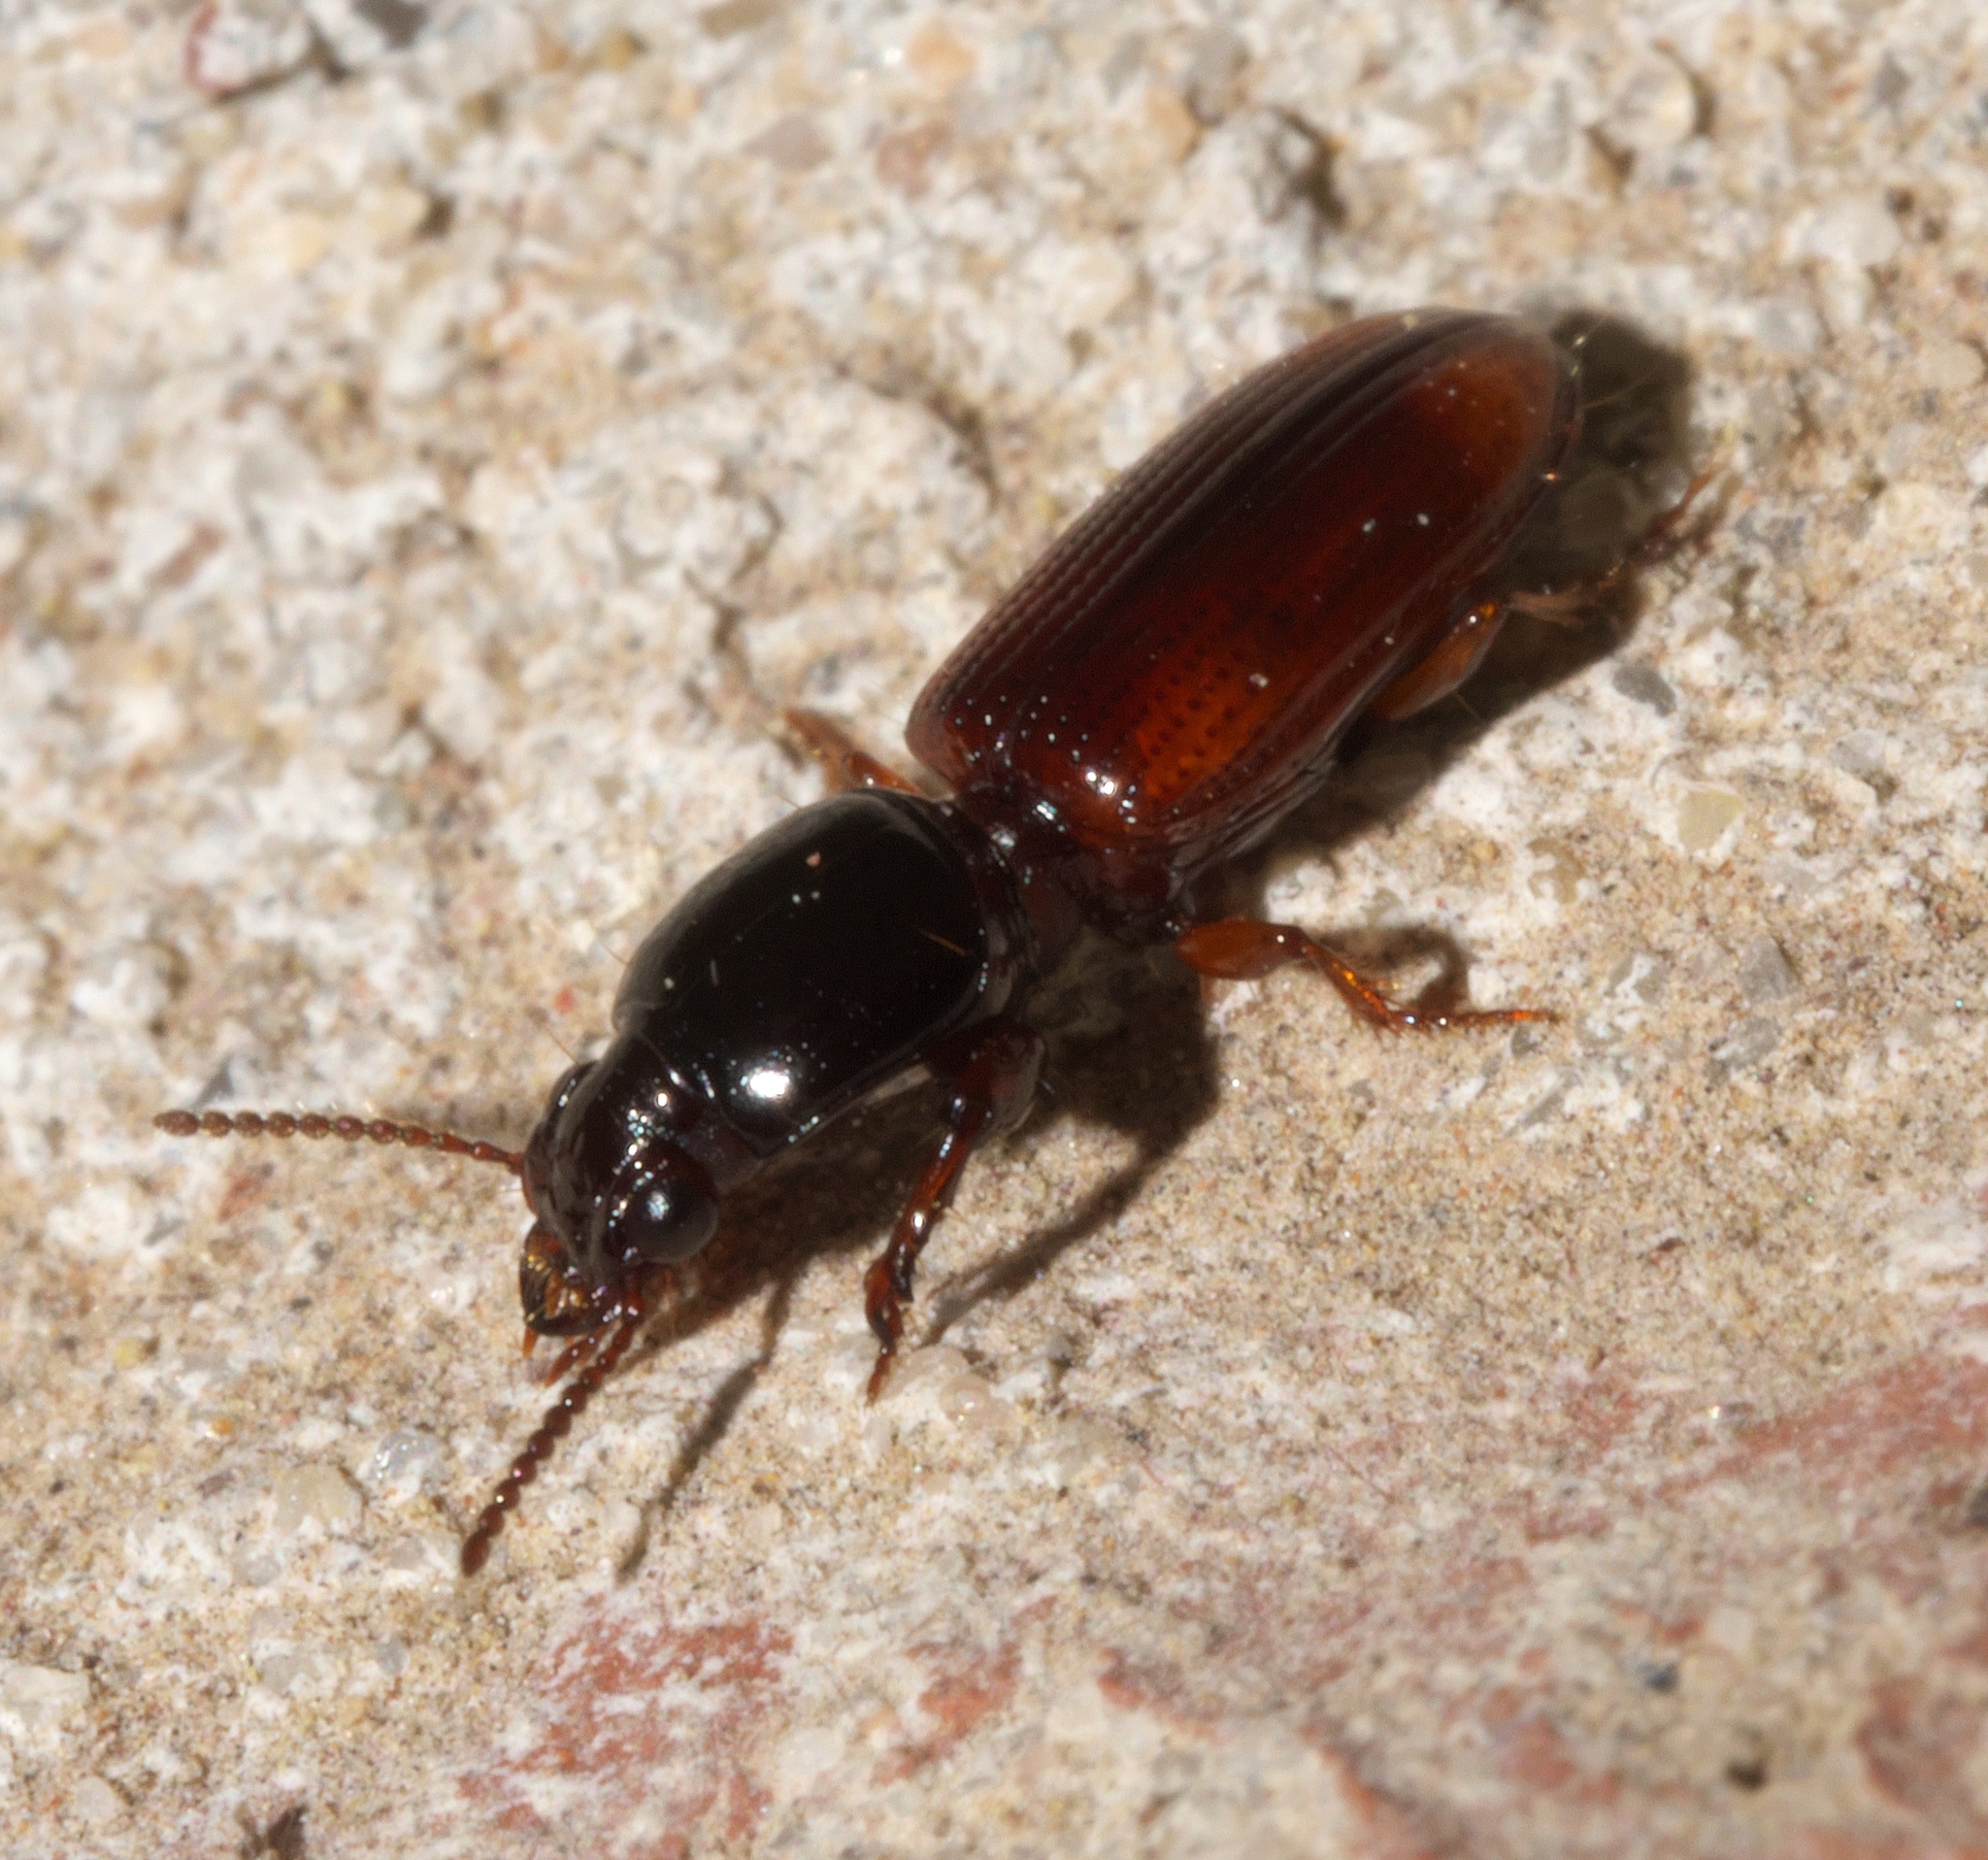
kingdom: Animalia
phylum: Arthropoda
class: Insecta
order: Coleoptera
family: Carabidae
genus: Clivina
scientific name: Clivina bipustulata
